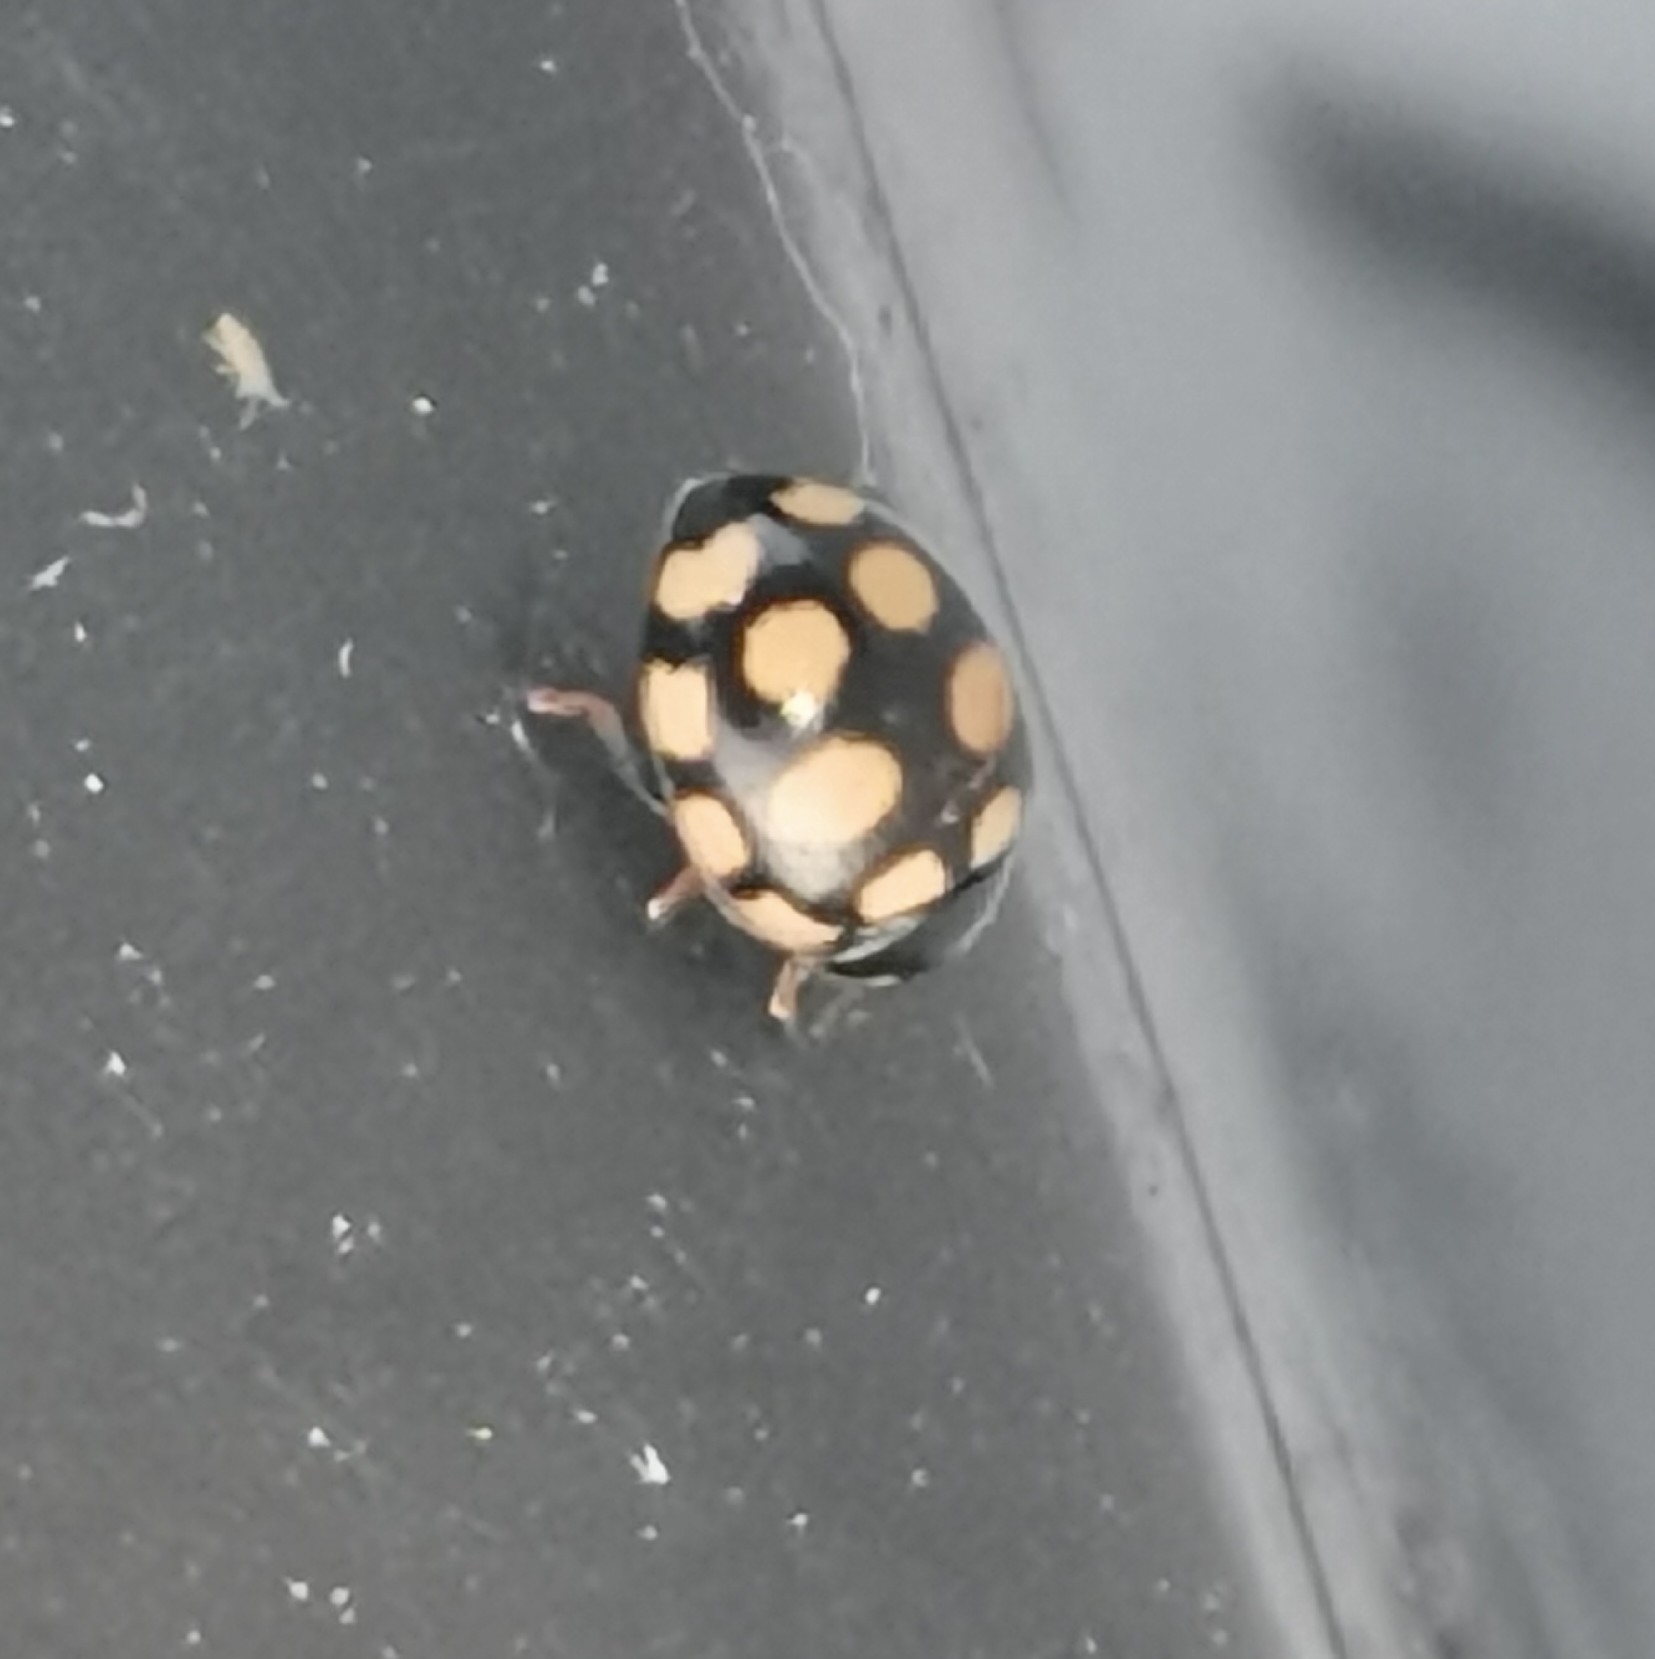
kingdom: Animalia
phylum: Arthropoda
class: Insecta
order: Coleoptera
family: Coccinellidae
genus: Coccinula
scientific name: Coccinula quatuordecimpustulata
